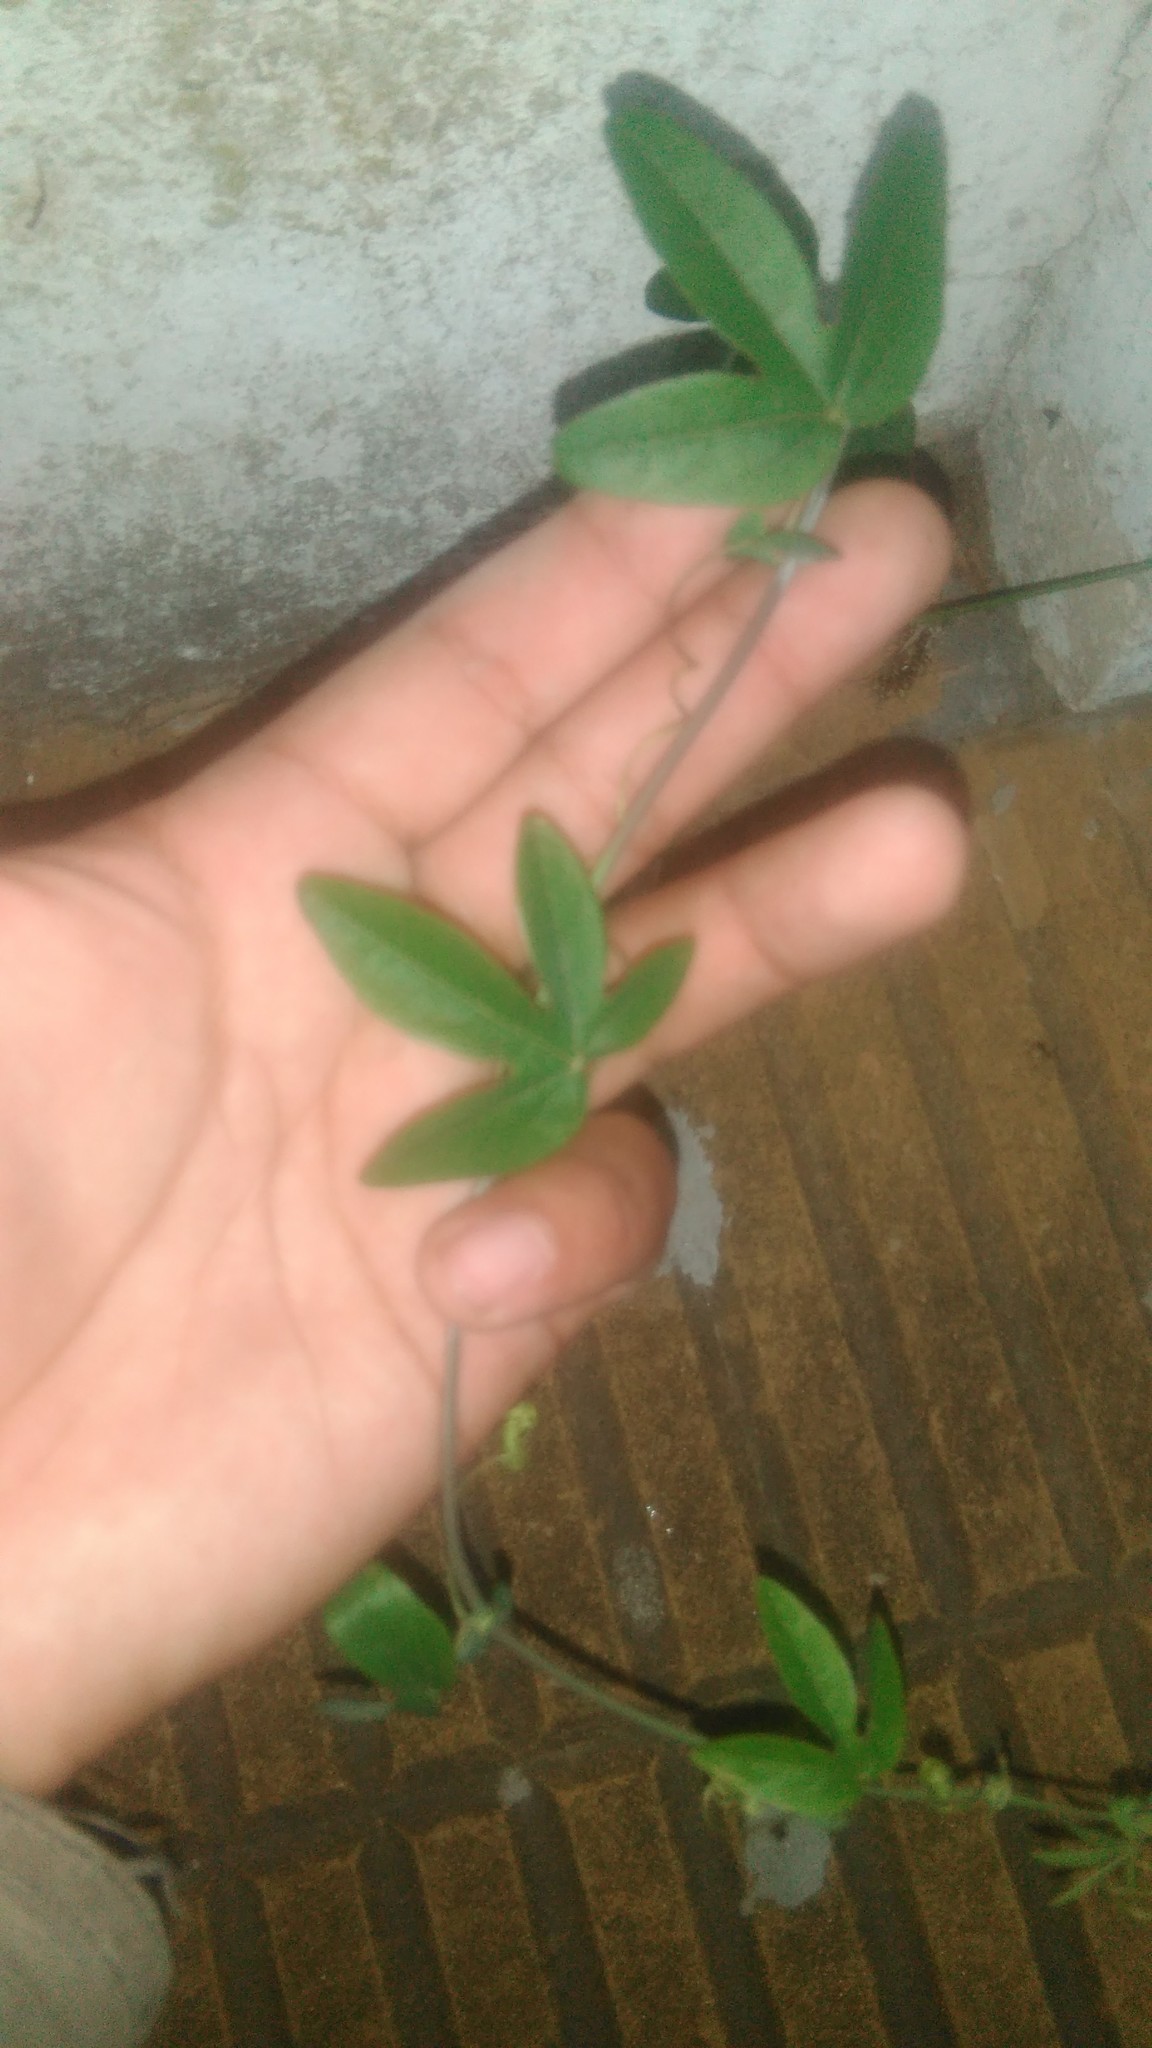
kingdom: Plantae
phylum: Tracheophyta
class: Magnoliopsida
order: Malpighiales
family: Passifloraceae
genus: Passiflora
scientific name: Passiflora caerulea
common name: Blue passionflower
